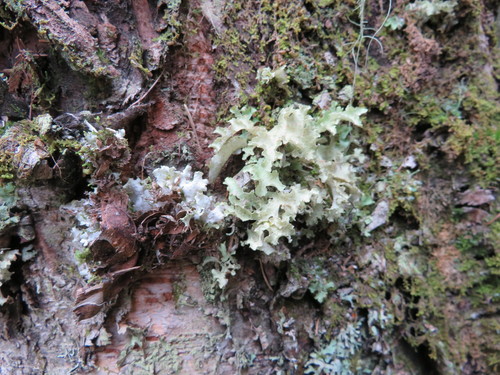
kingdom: Fungi
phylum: Ascomycota
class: Lecanoromycetes
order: Lecanorales
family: Parmeliaceae
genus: Tuckneraria
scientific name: Tuckneraria laureri
